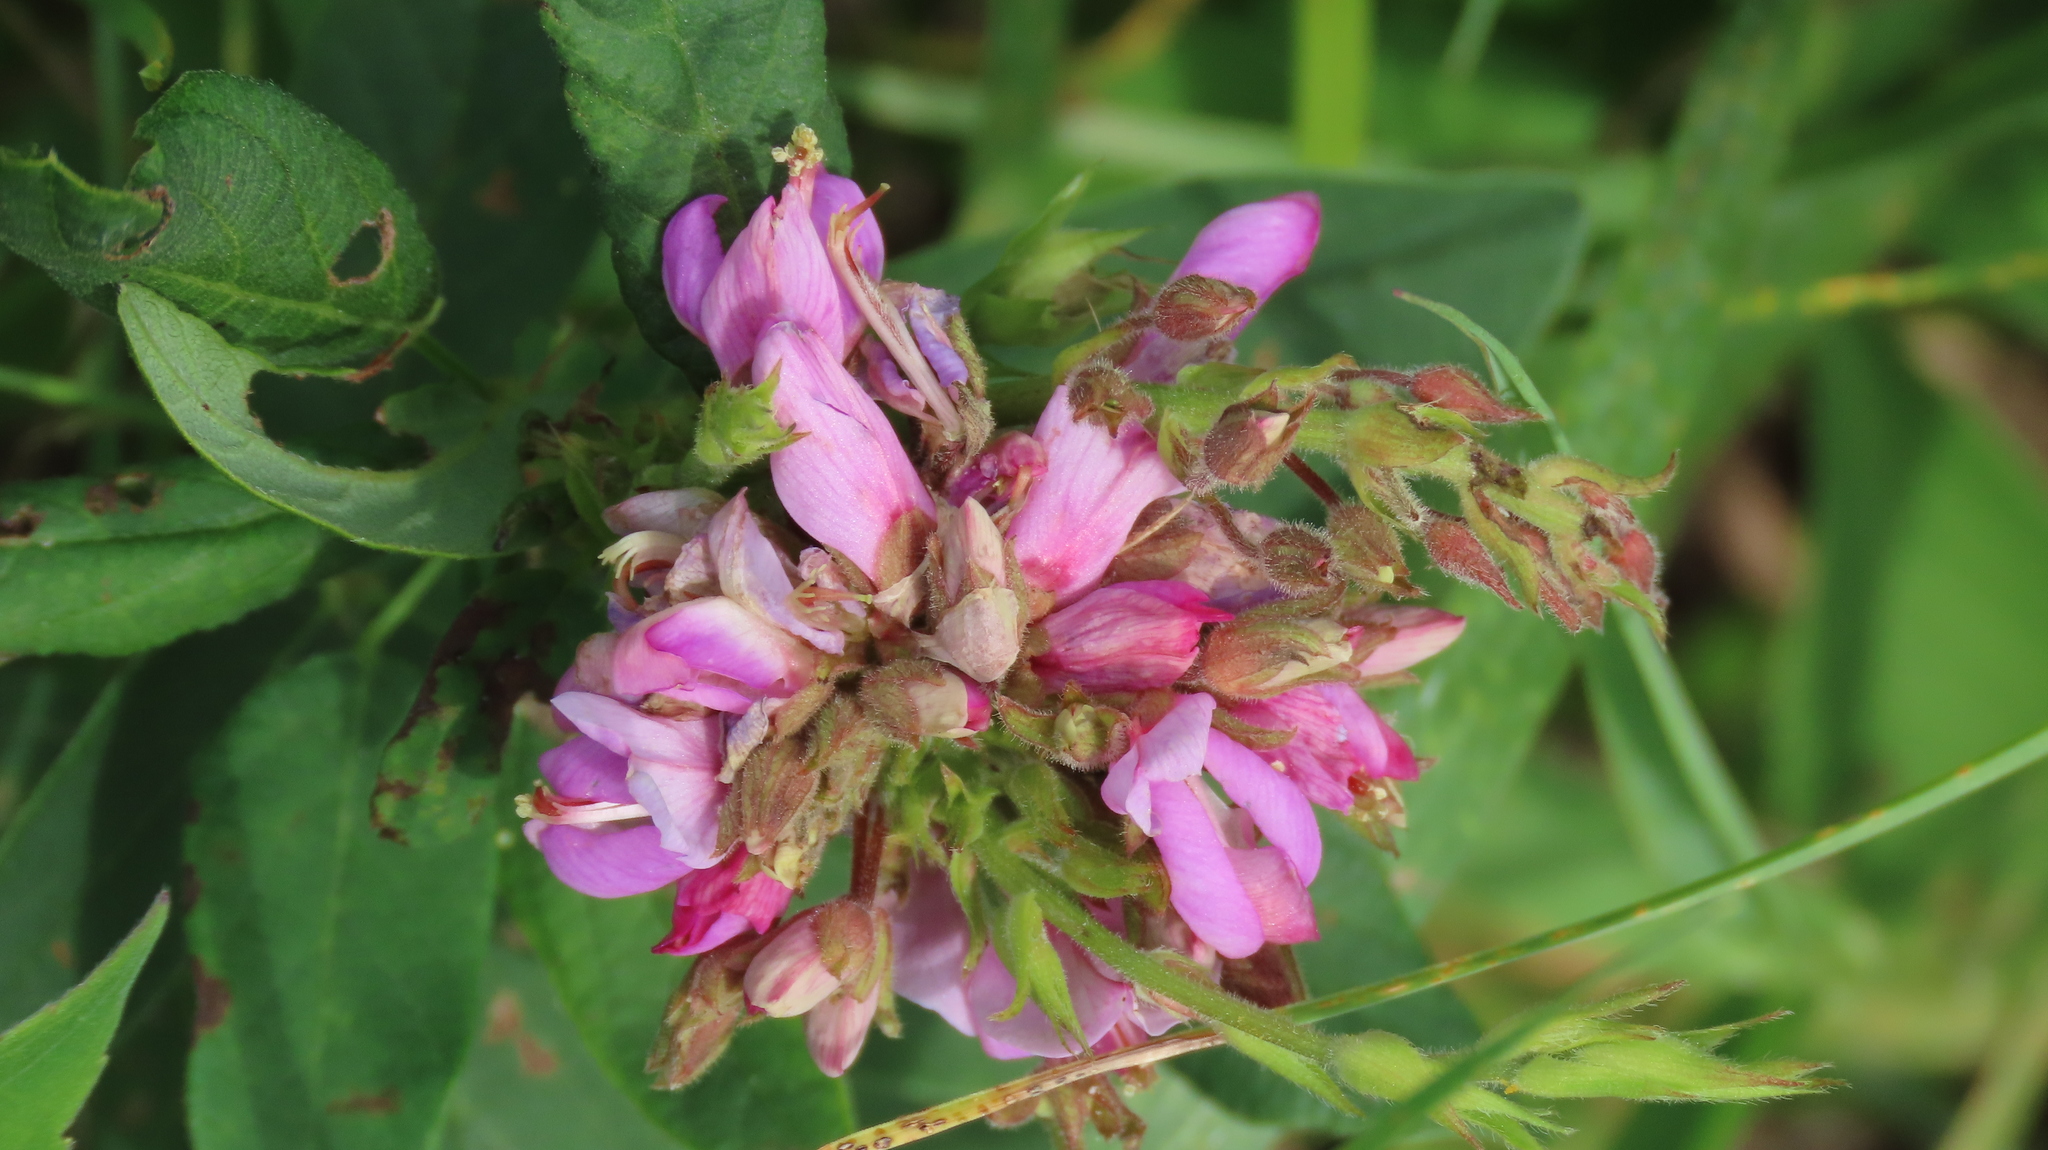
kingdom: Plantae
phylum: Tracheophyta
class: Magnoliopsida
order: Fabales
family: Fabaceae
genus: Desmodium
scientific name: Desmodium canadense
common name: Canada tick-trefoil
